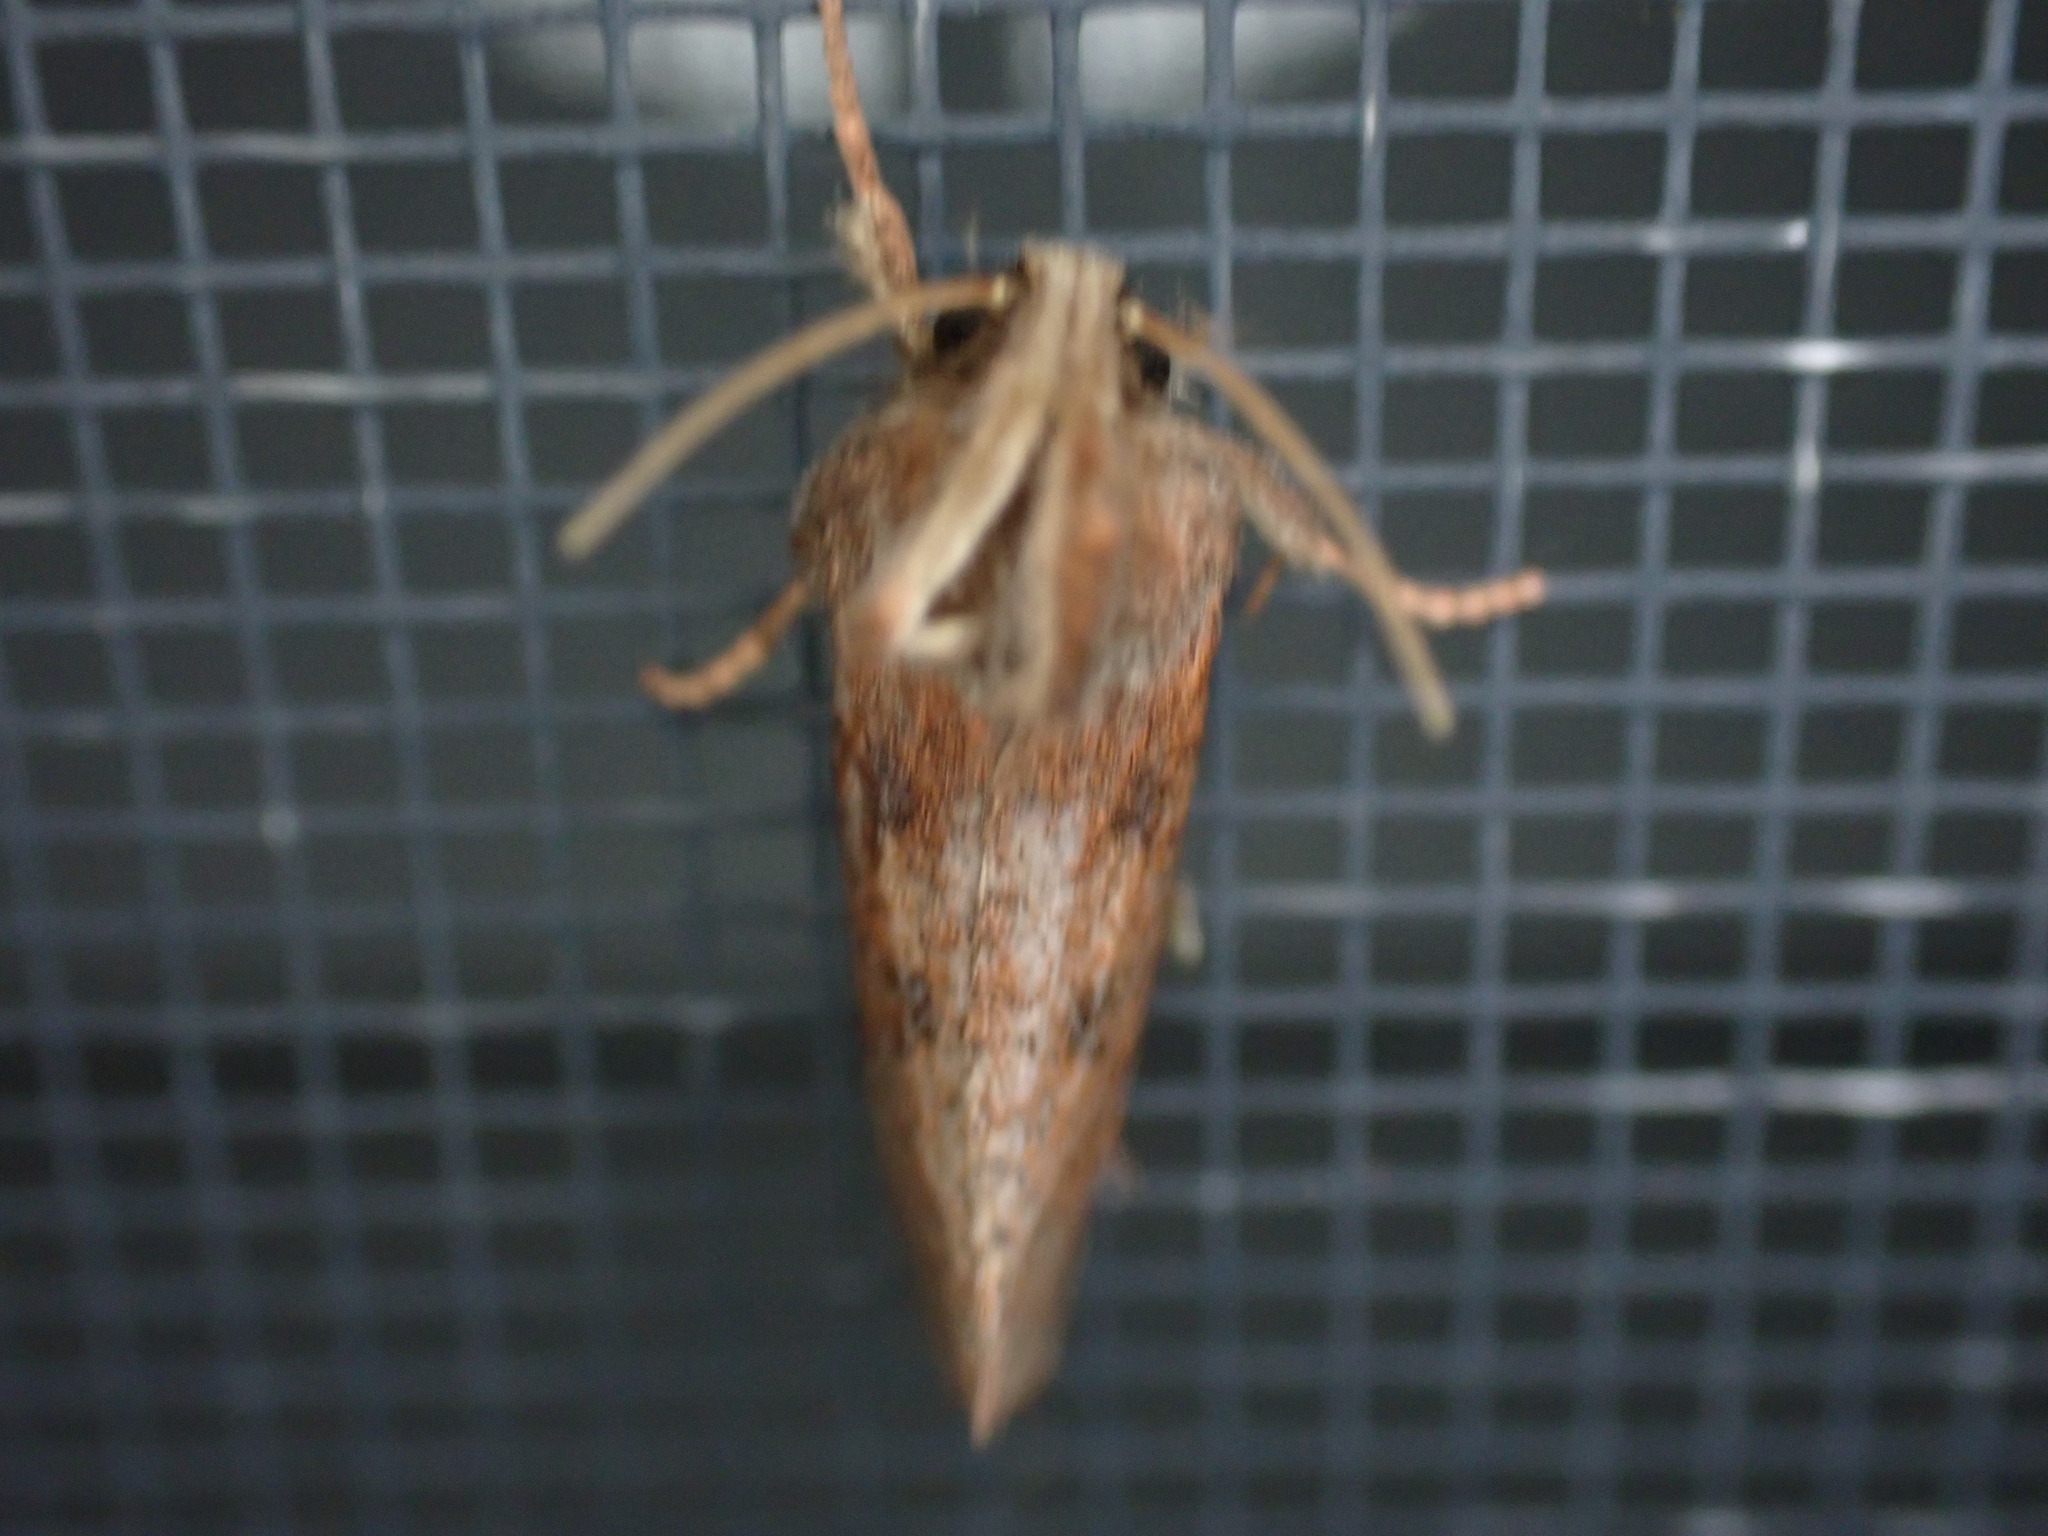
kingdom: Animalia
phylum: Arthropoda
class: Insecta
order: Lepidoptera
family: Tineidae
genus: Acrolophus
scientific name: Acrolophus plumifrontella
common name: Eastern grass tubeworm moth
